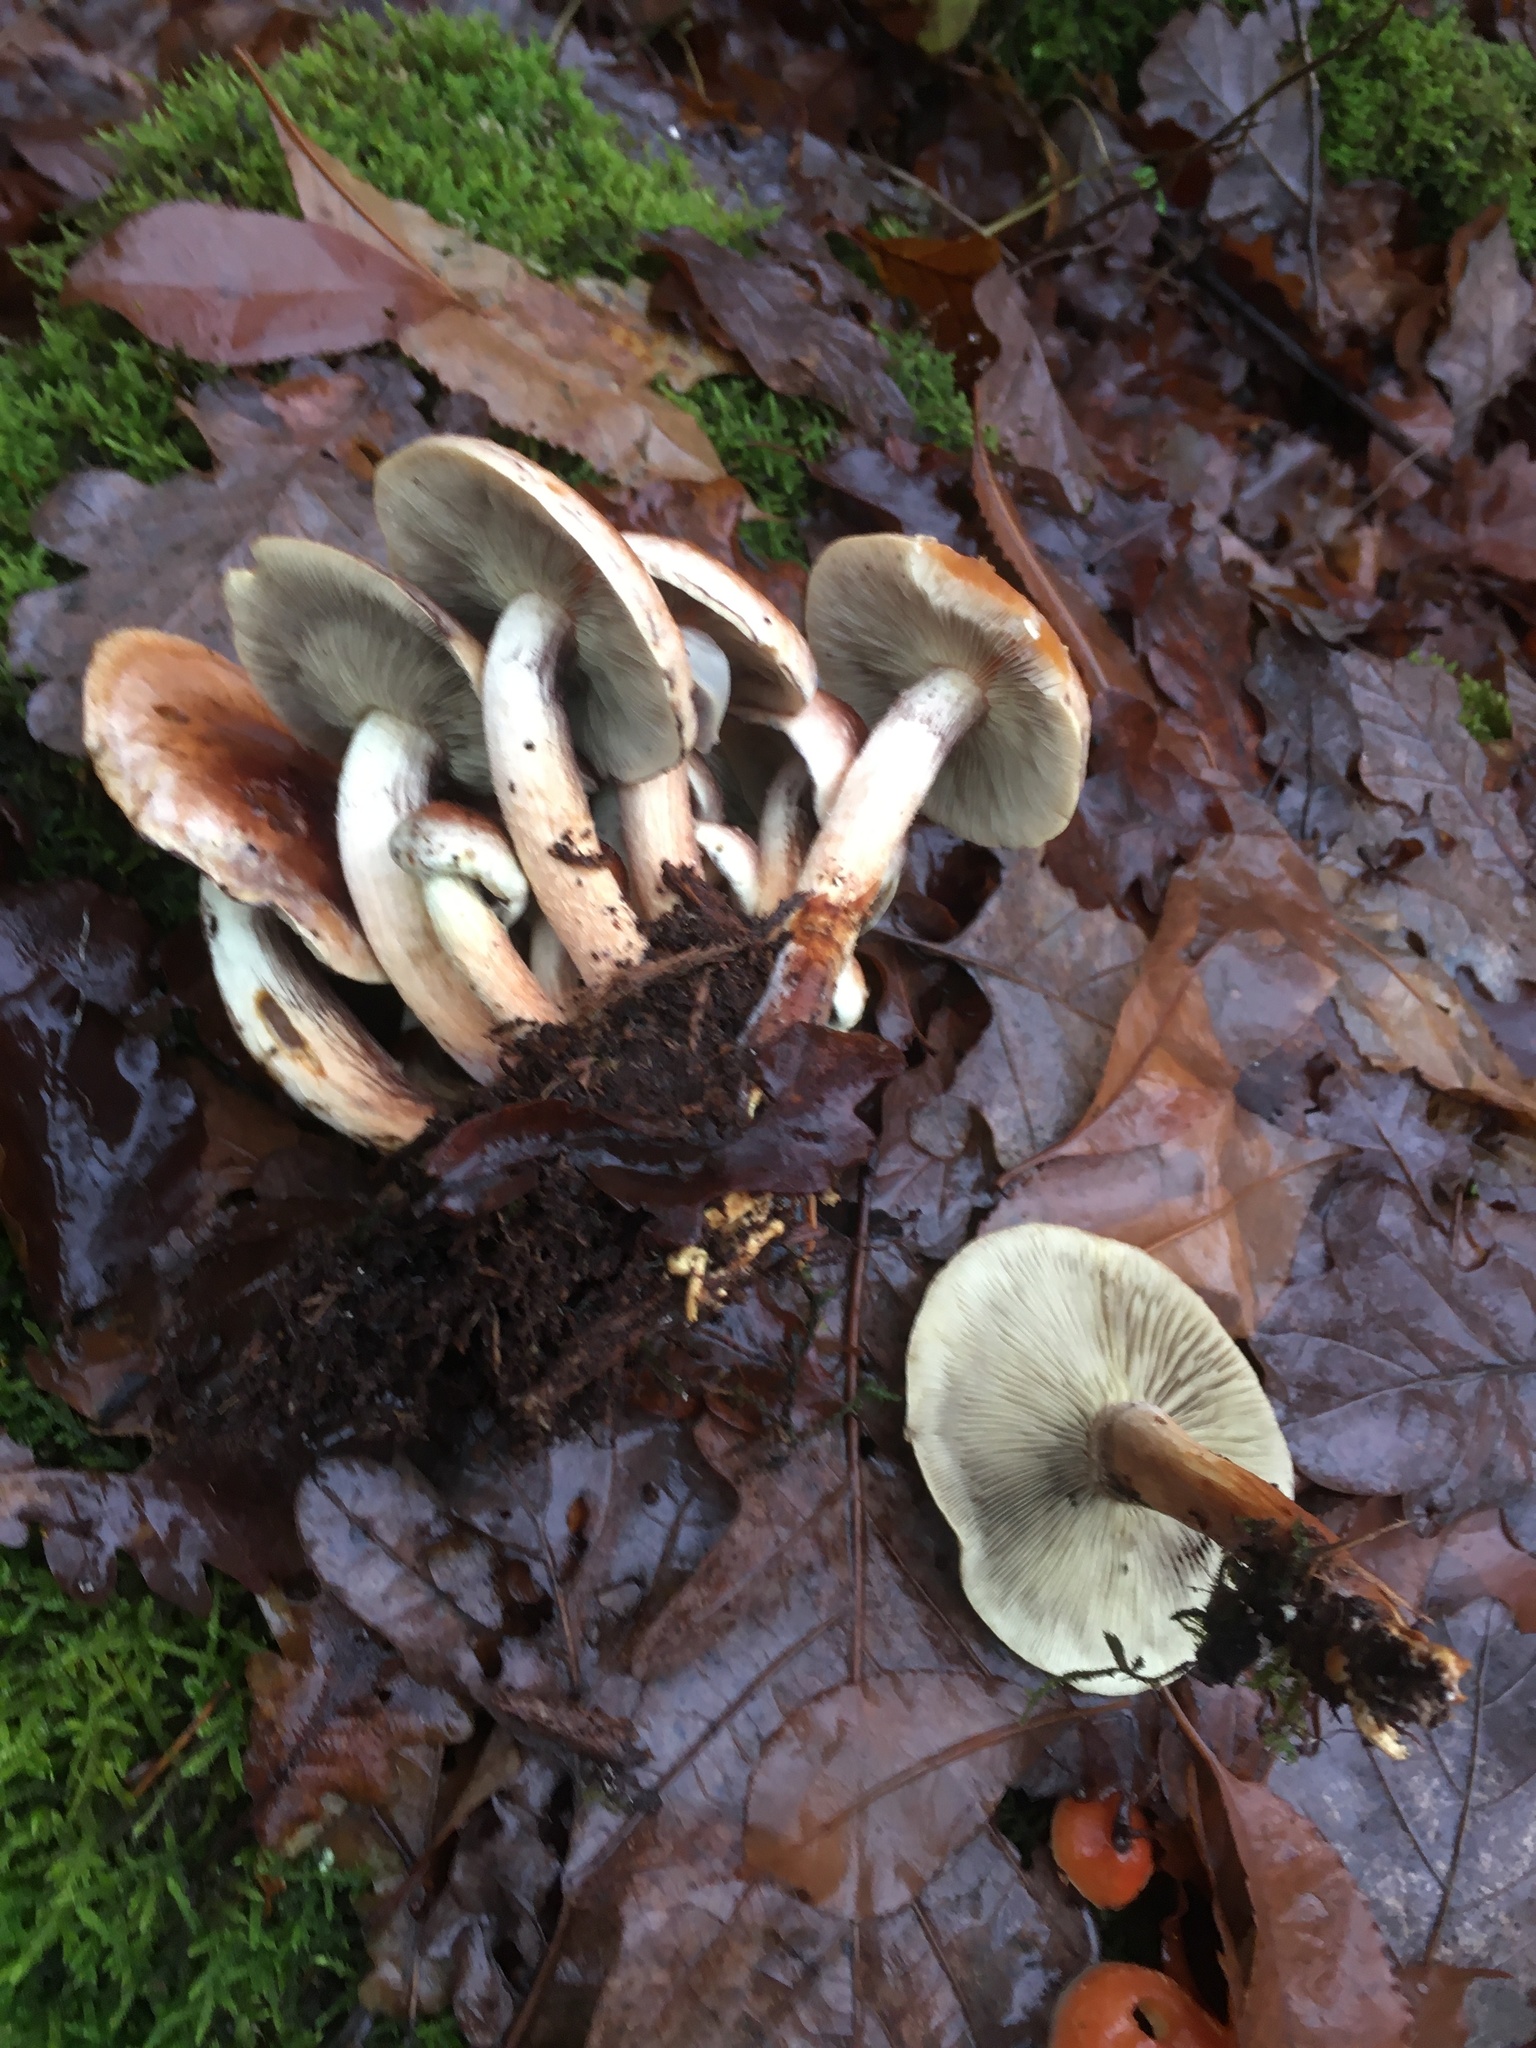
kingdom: Fungi
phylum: Basidiomycota
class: Agaricomycetes
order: Agaricales
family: Strophariaceae
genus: Hypholoma
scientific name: Hypholoma lateritium
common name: Brick caps
